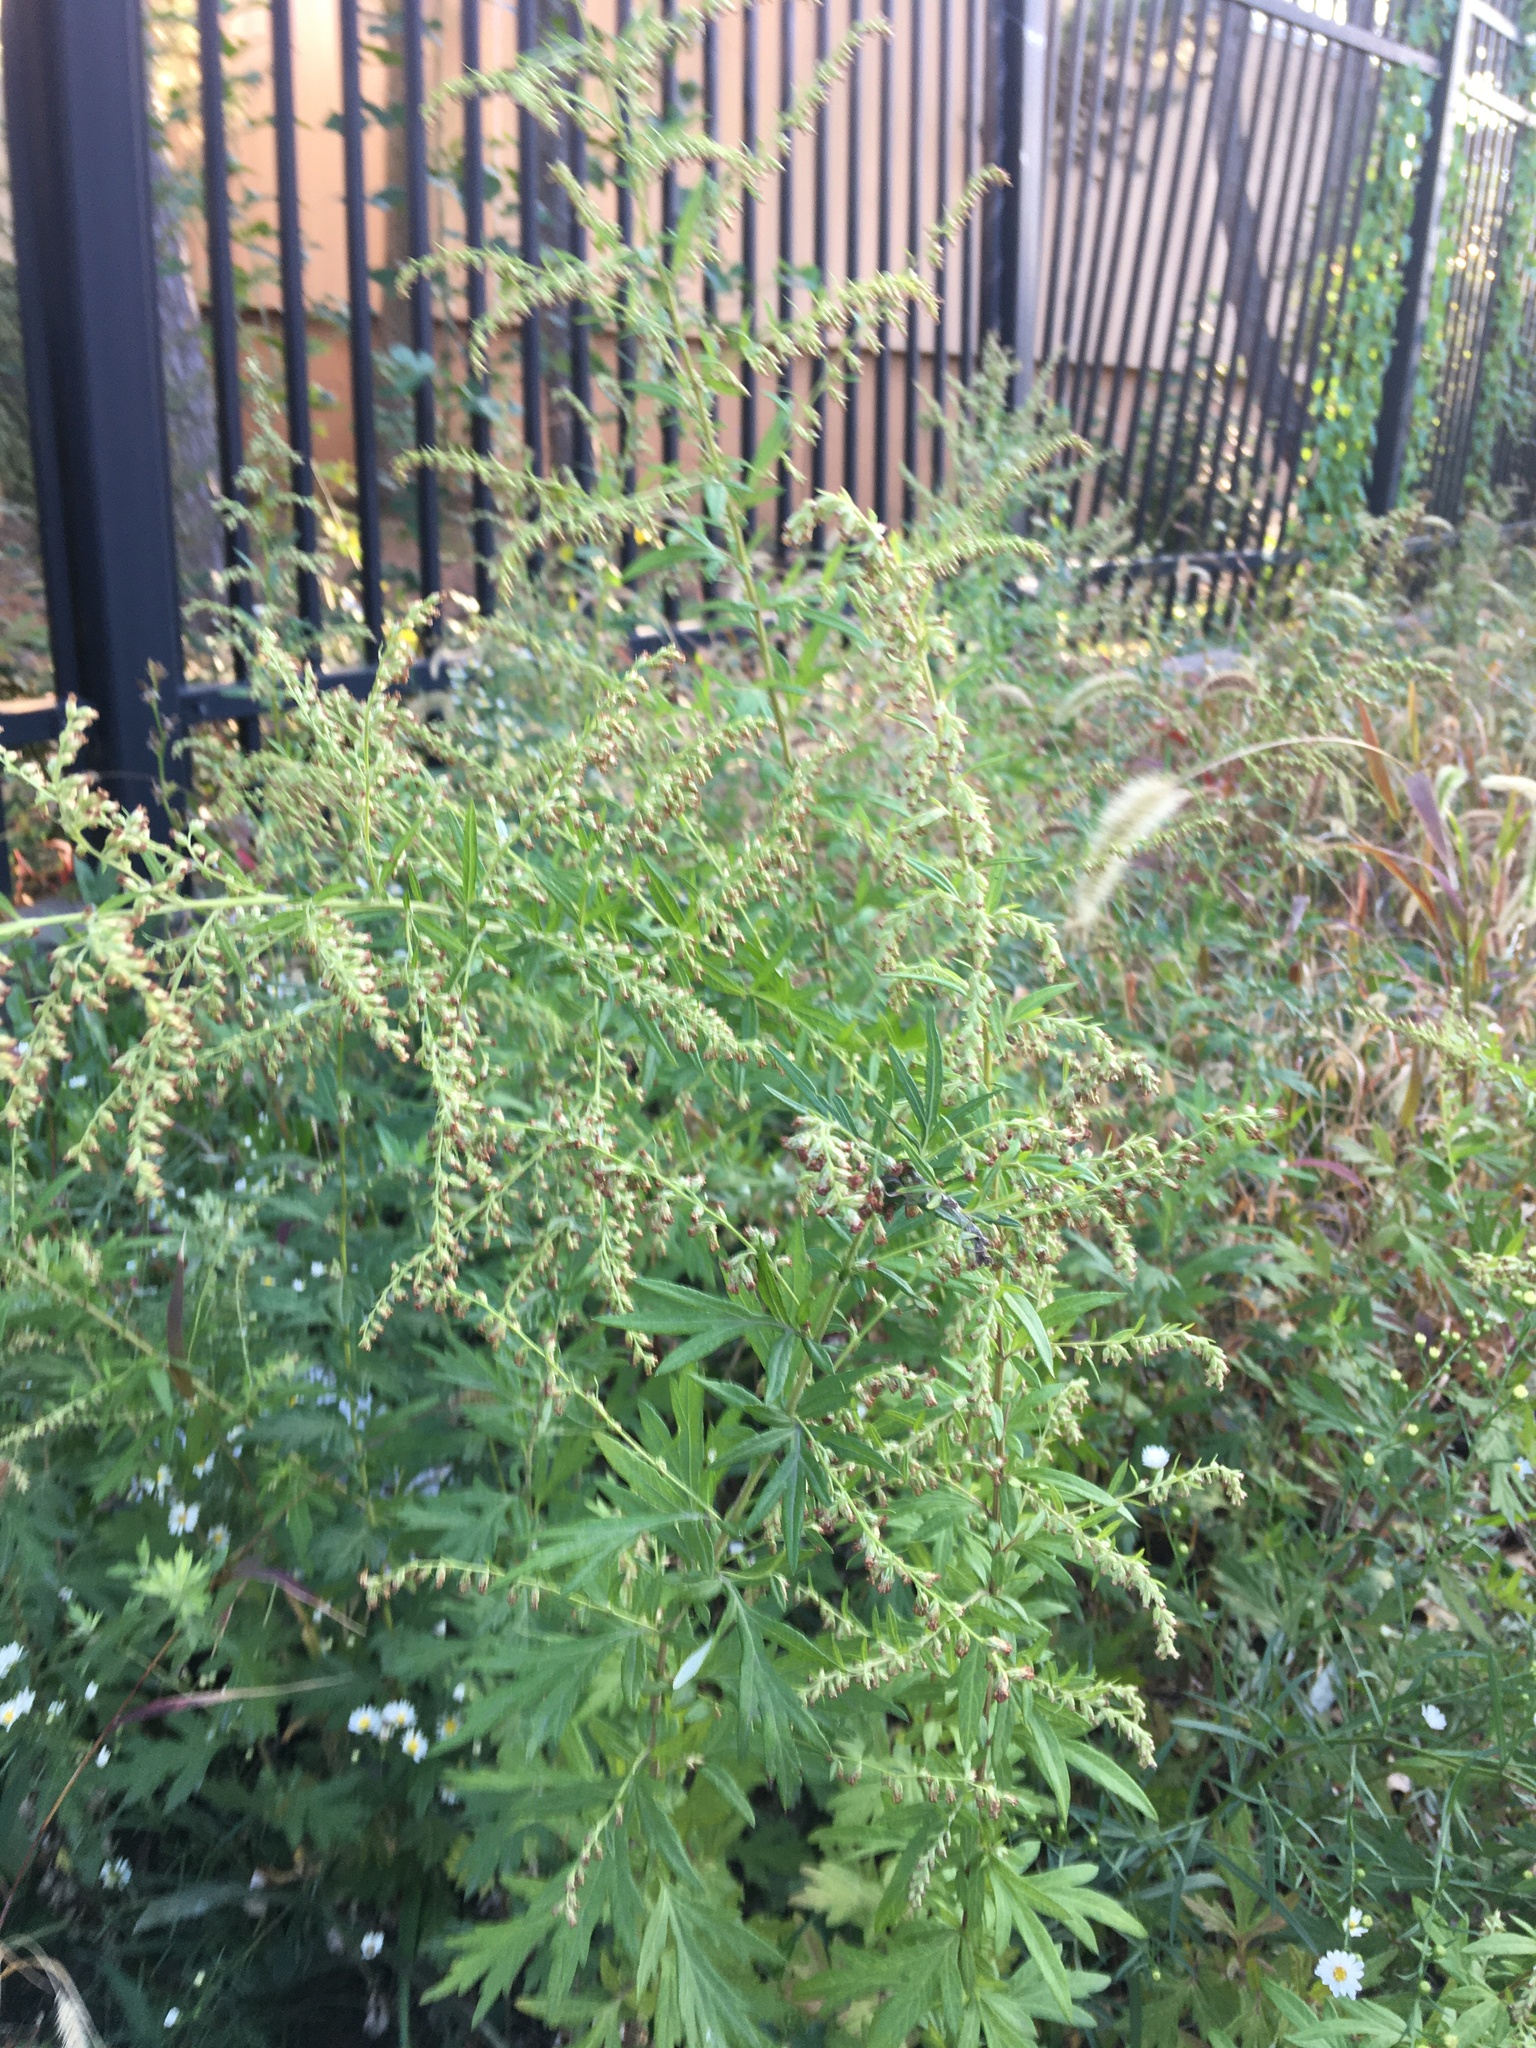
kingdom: Plantae
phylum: Tracheophyta
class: Magnoliopsida
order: Asterales
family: Asteraceae
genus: Artemisia
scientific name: Artemisia vulgaris
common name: Mugwort
